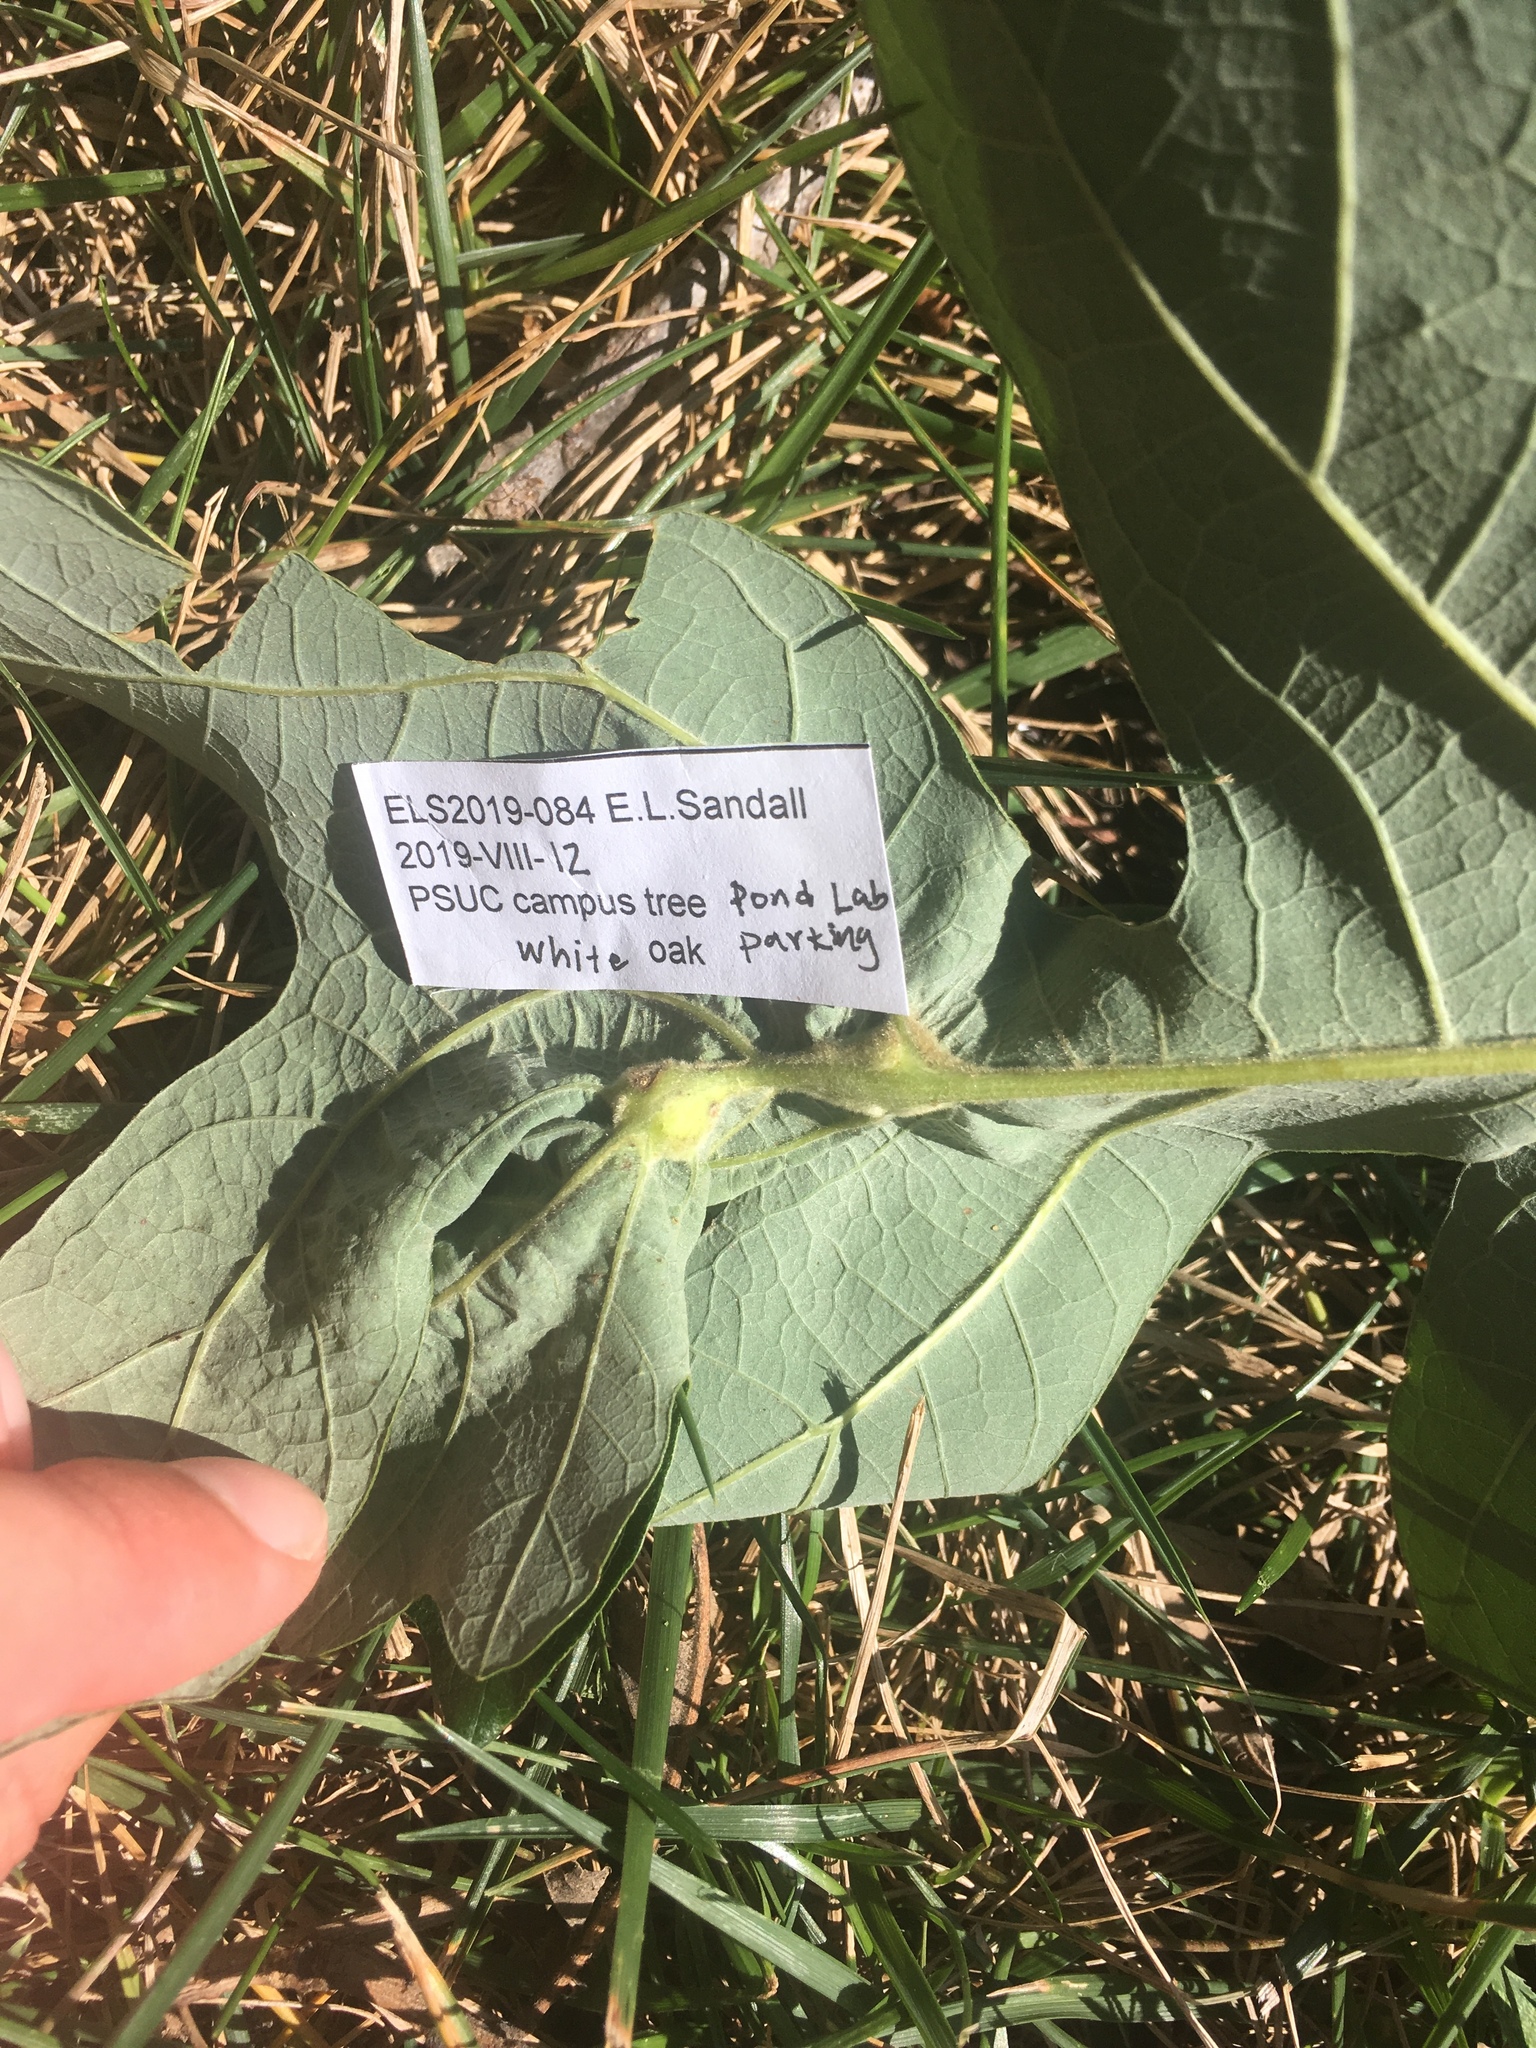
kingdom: Animalia
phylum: Arthropoda
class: Insecta
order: Hymenoptera
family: Cynipidae
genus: Bassettia
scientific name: Bassettia flavipes
